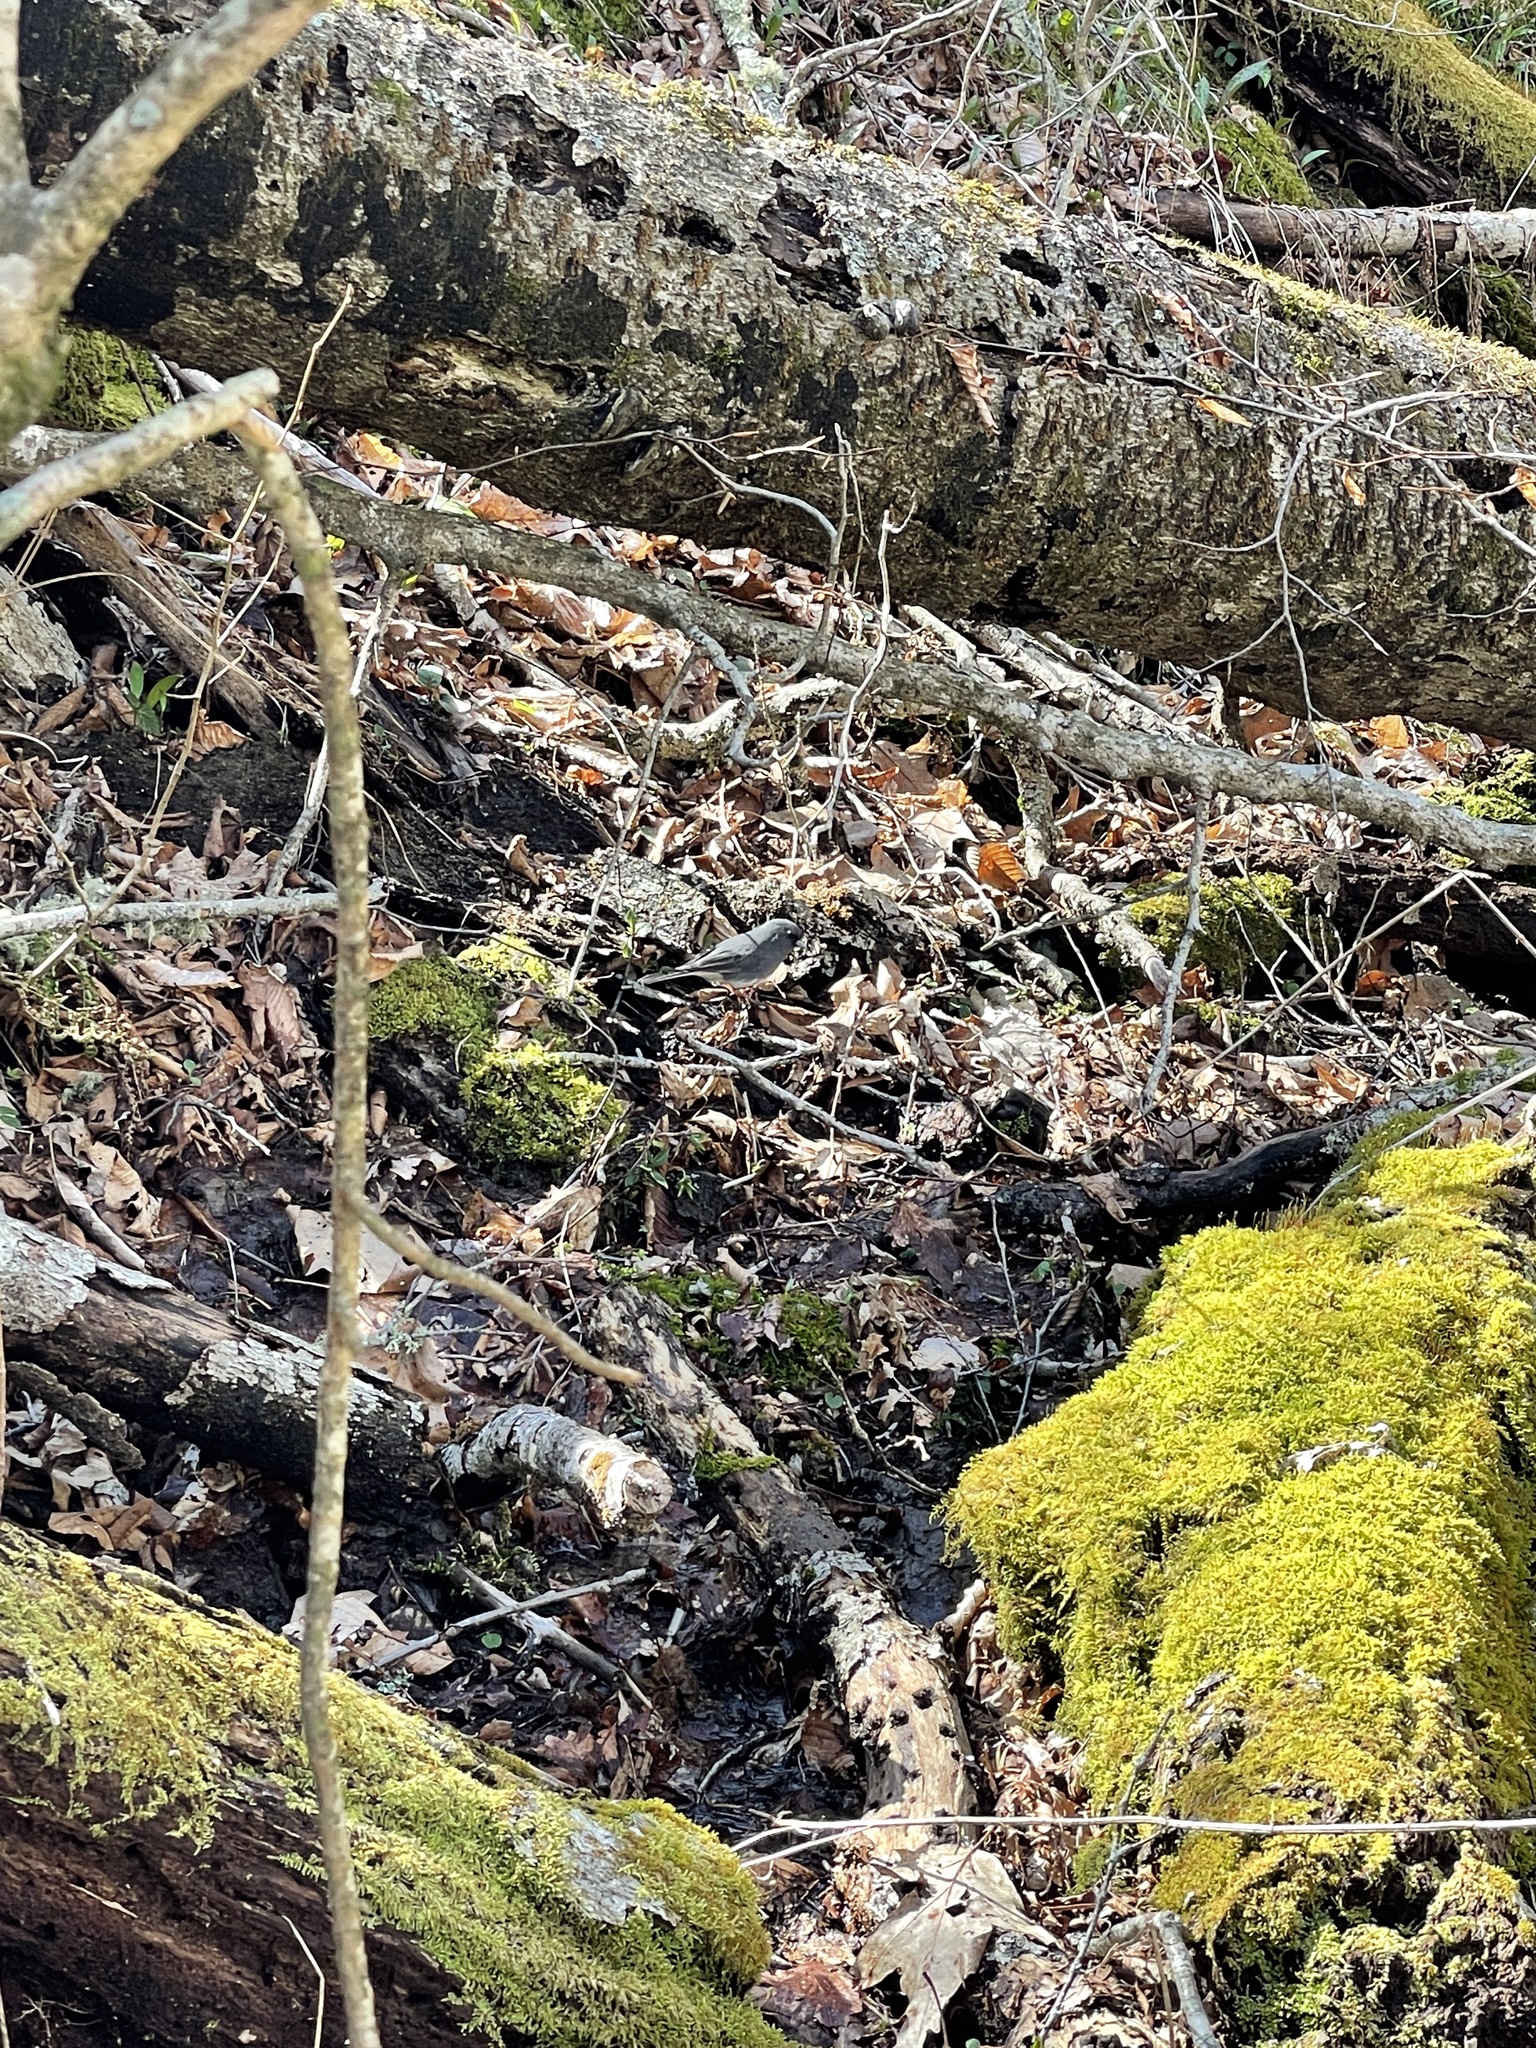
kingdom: Animalia
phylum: Chordata
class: Aves
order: Passeriformes
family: Passerellidae
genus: Junco
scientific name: Junco hyemalis
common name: Dark-eyed junco
